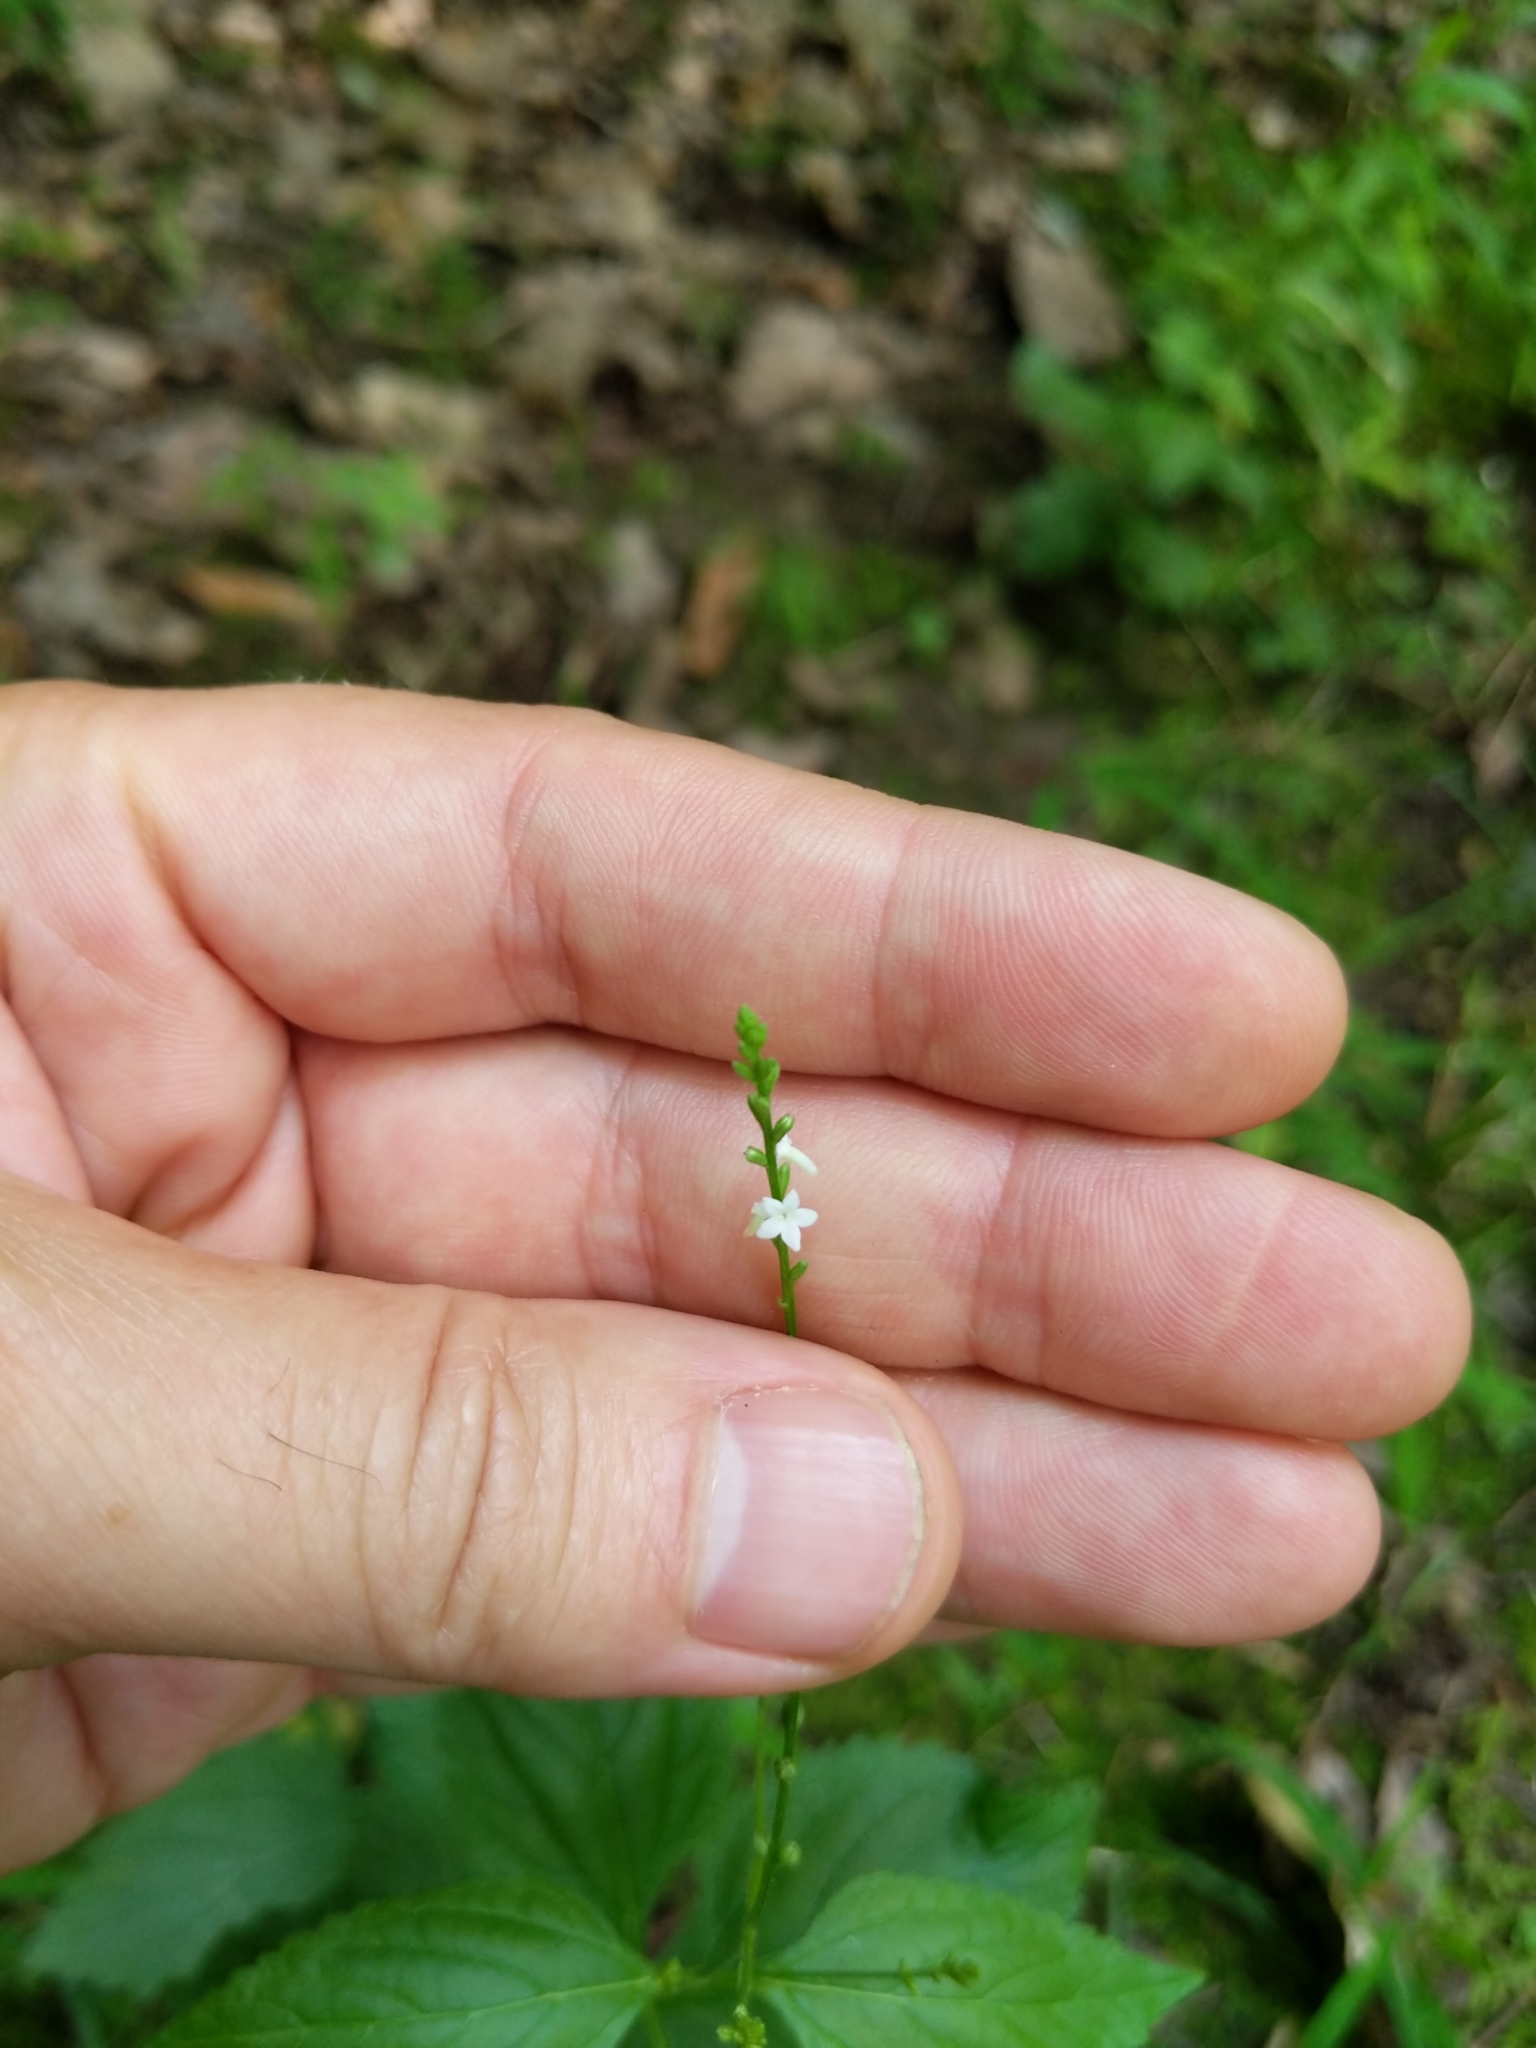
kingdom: Plantae
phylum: Tracheophyta
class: Magnoliopsida
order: Lamiales
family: Verbenaceae
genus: Verbena
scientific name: Verbena urticifolia
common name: Nettle-leaved vervain
